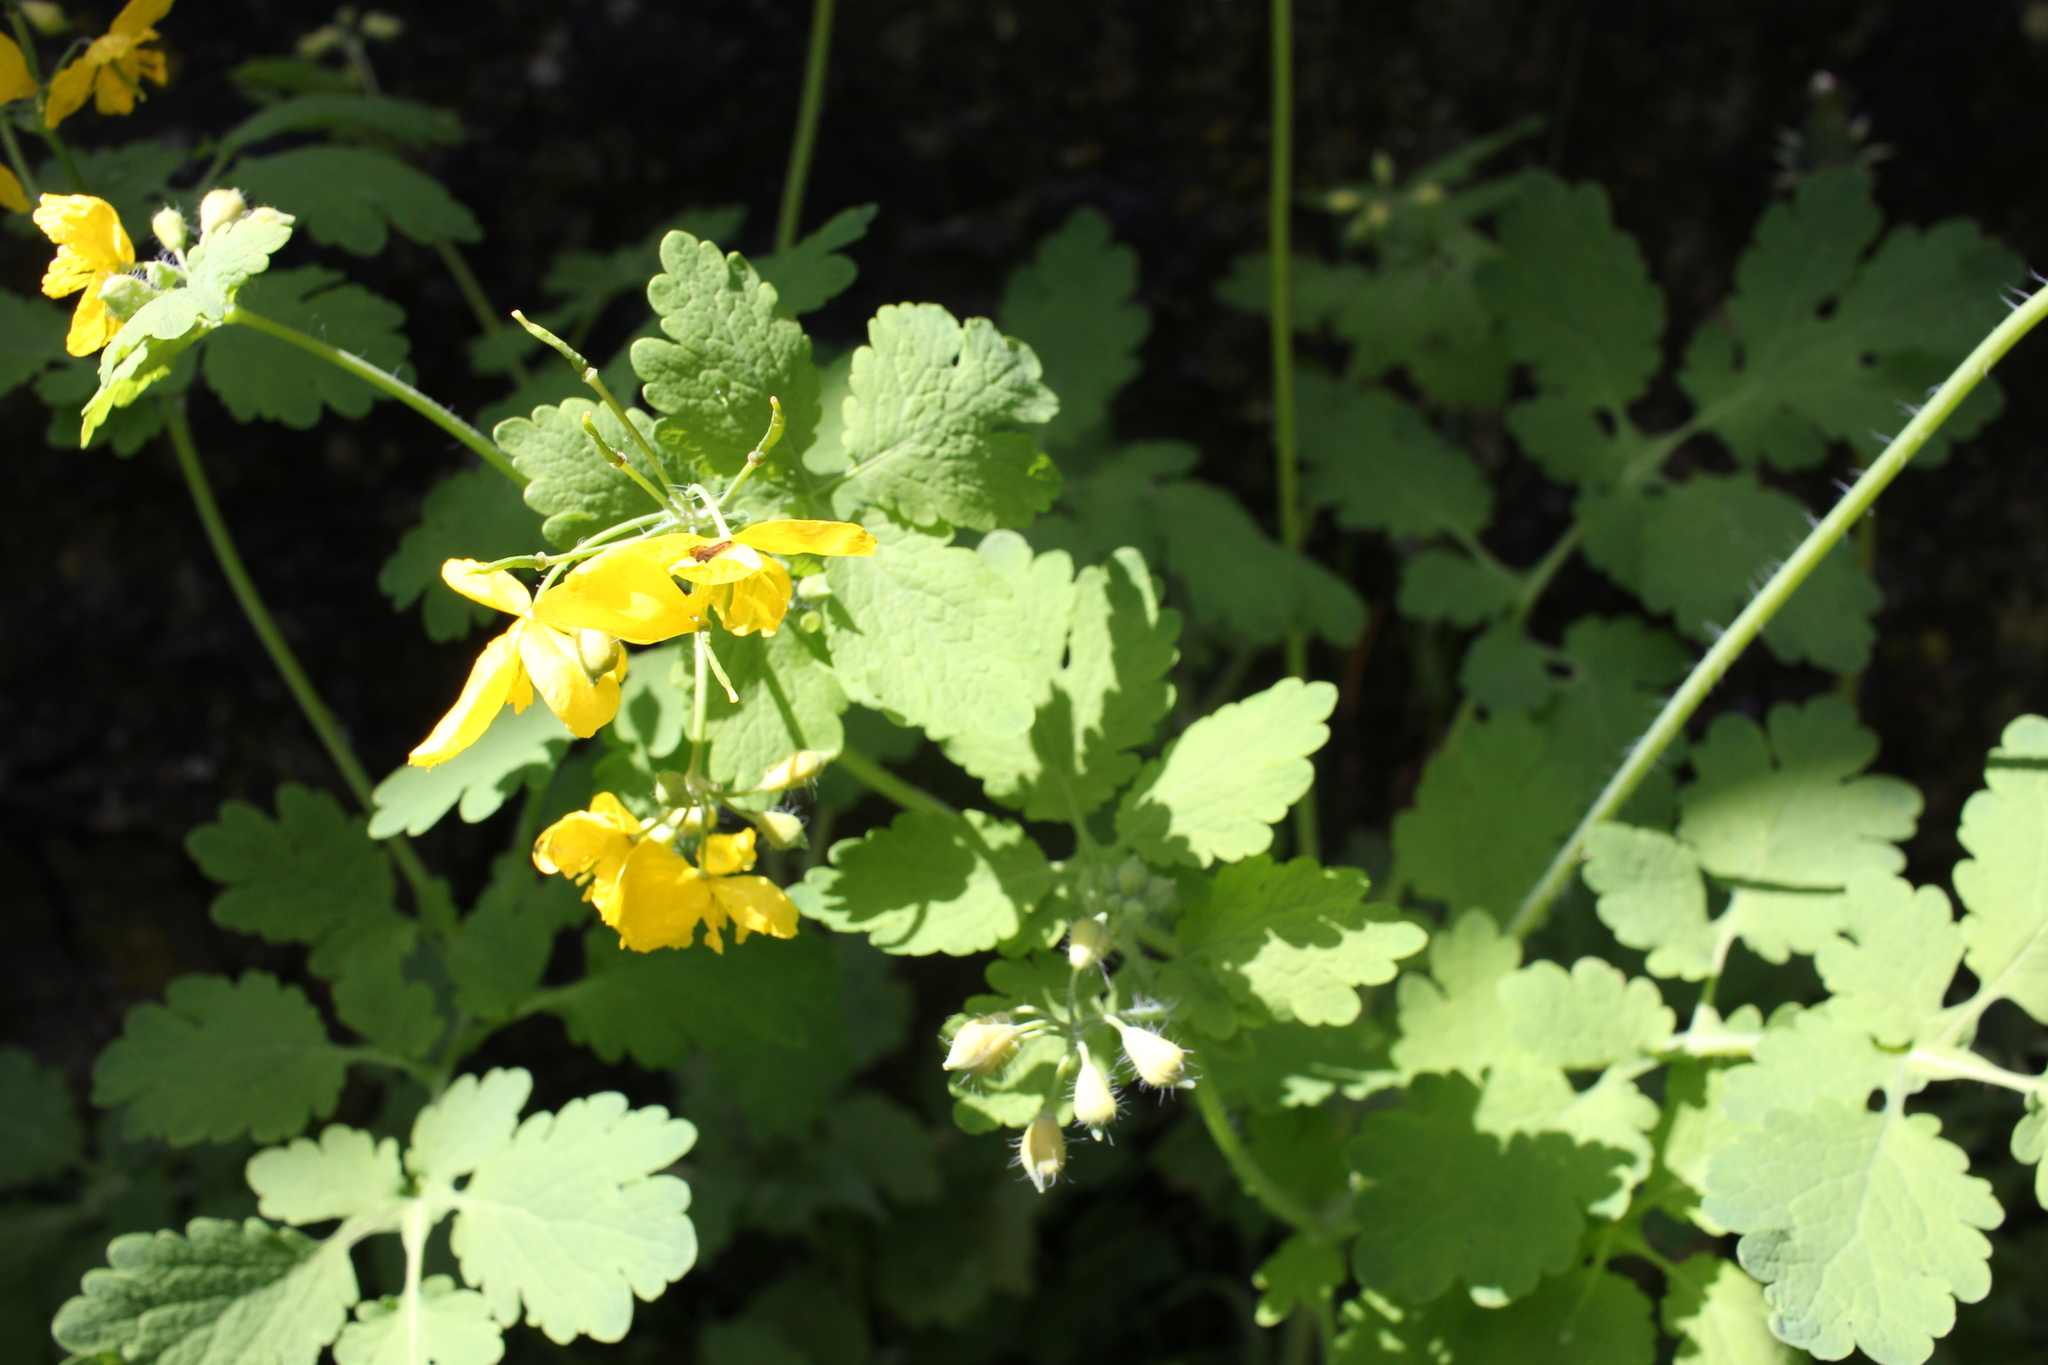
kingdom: Plantae
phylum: Tracheophyta
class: Magnoliopsida
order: Ranunculales
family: Papaveraceae
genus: Chelidonium
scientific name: Chelidonium majus
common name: Greater celandine
